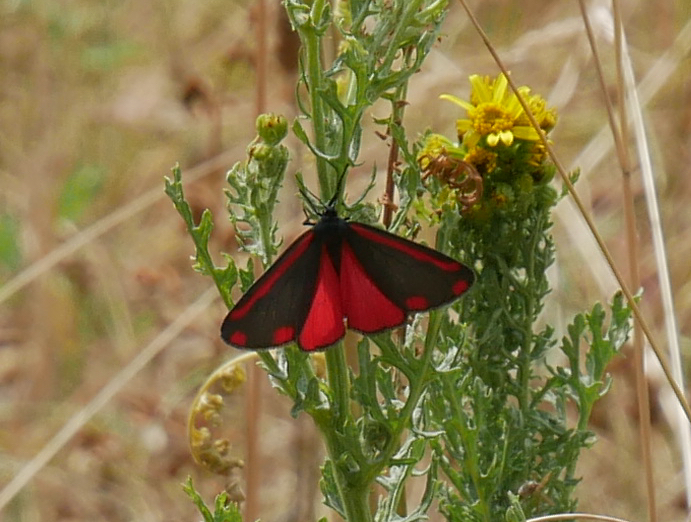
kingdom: Animalia
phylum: Arthropoda
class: Insecta
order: Lepidoptera
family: Erebidae
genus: Tyria
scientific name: Tyria jacobaeae
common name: Cinnabar
